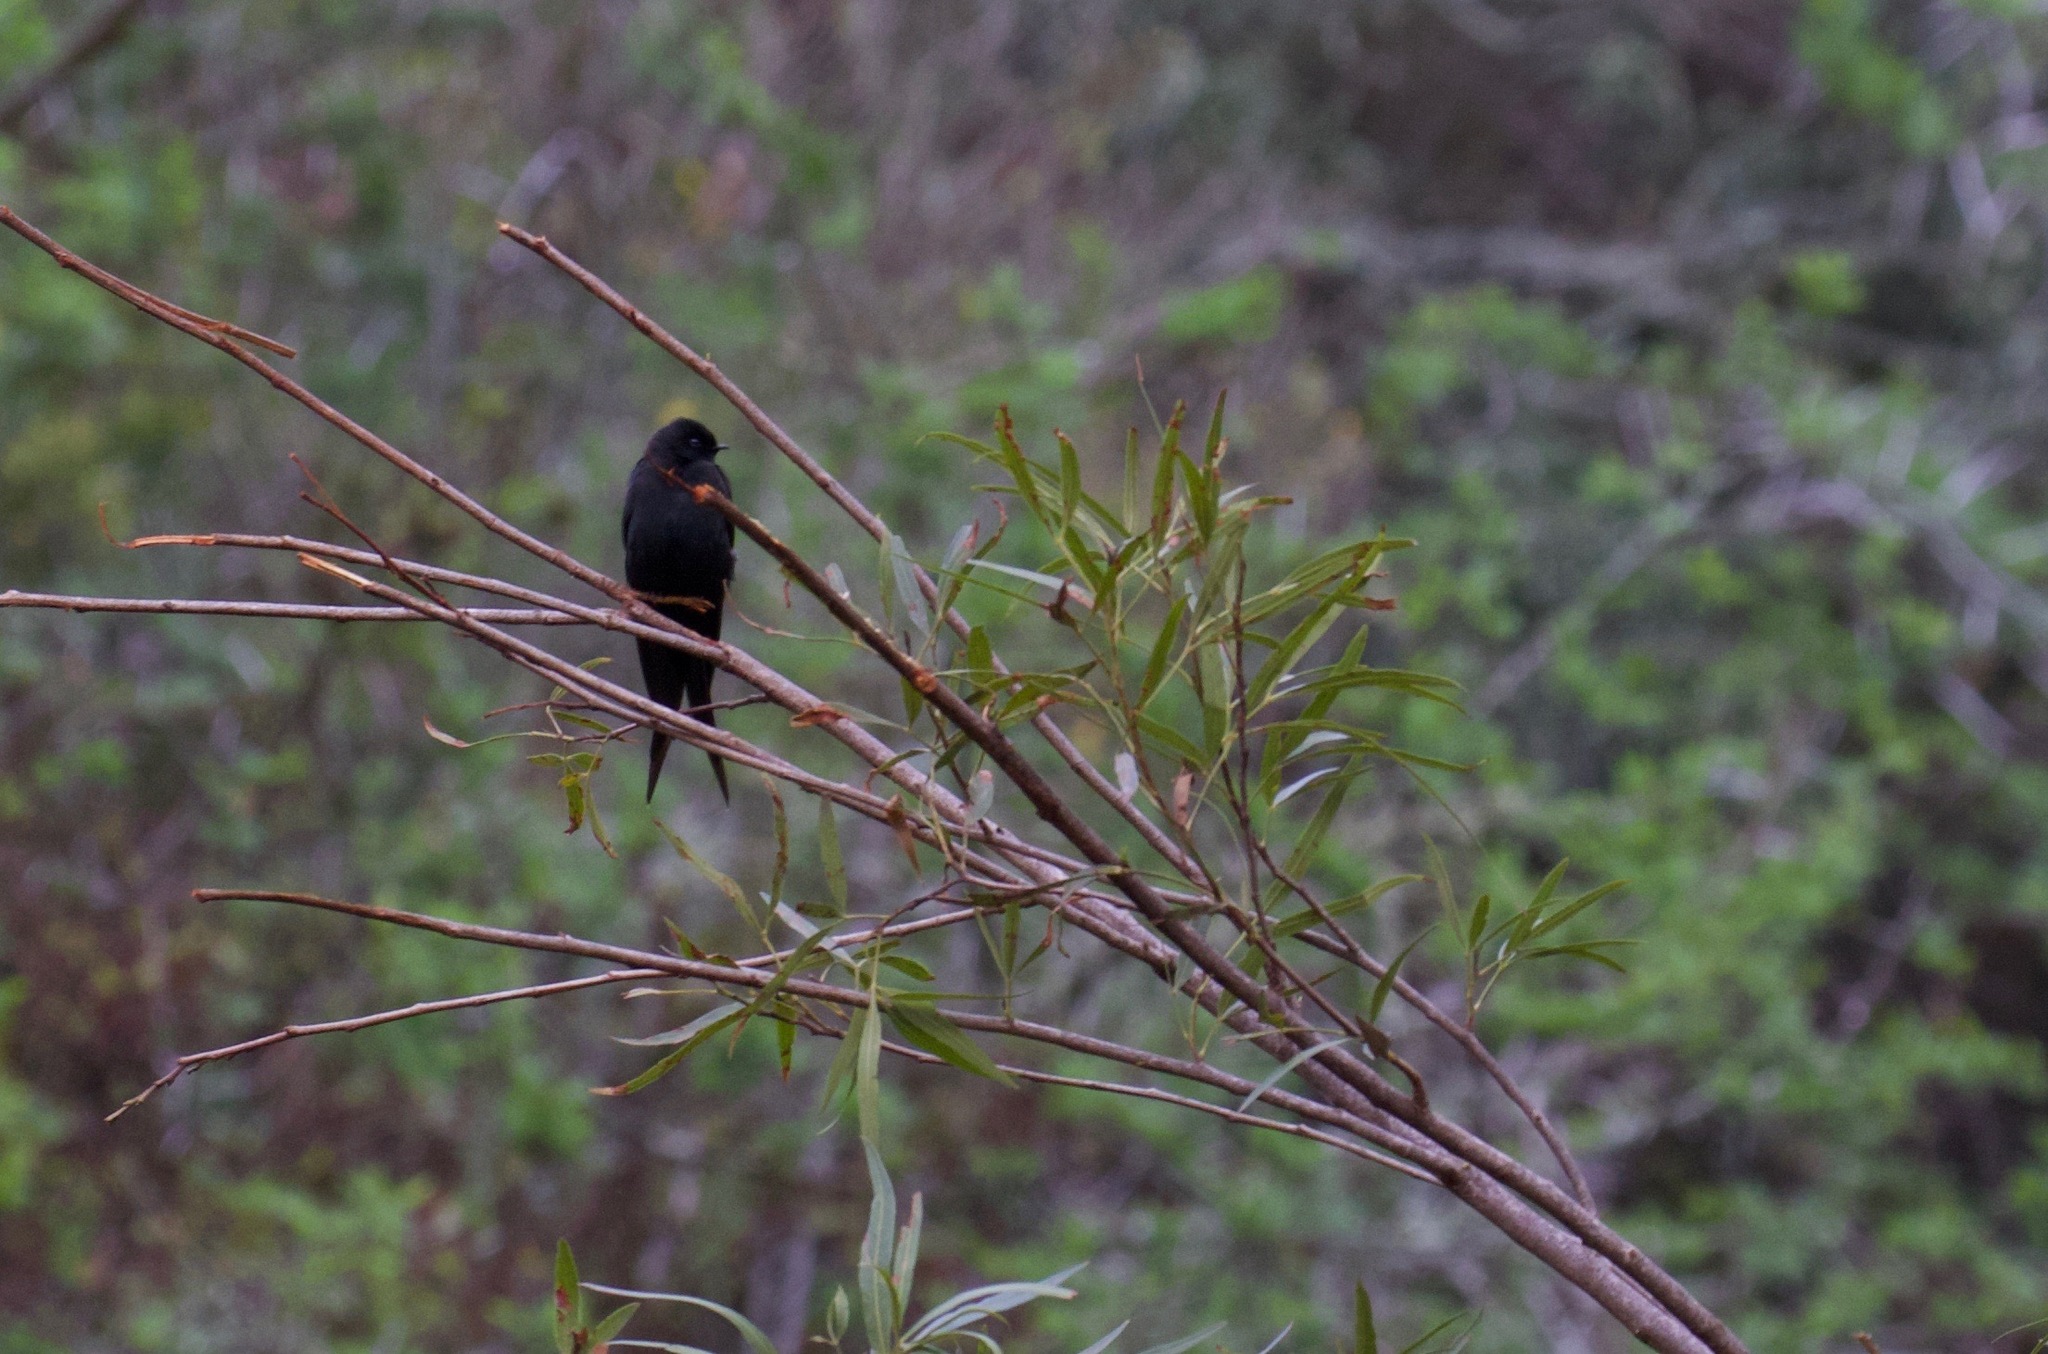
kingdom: Animalia
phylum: Chordata
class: Aves
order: Passeriformes
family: Hirundinidae
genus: Psalidoprocne
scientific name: Psalidoprocne pristoptera
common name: Black saw-wing
